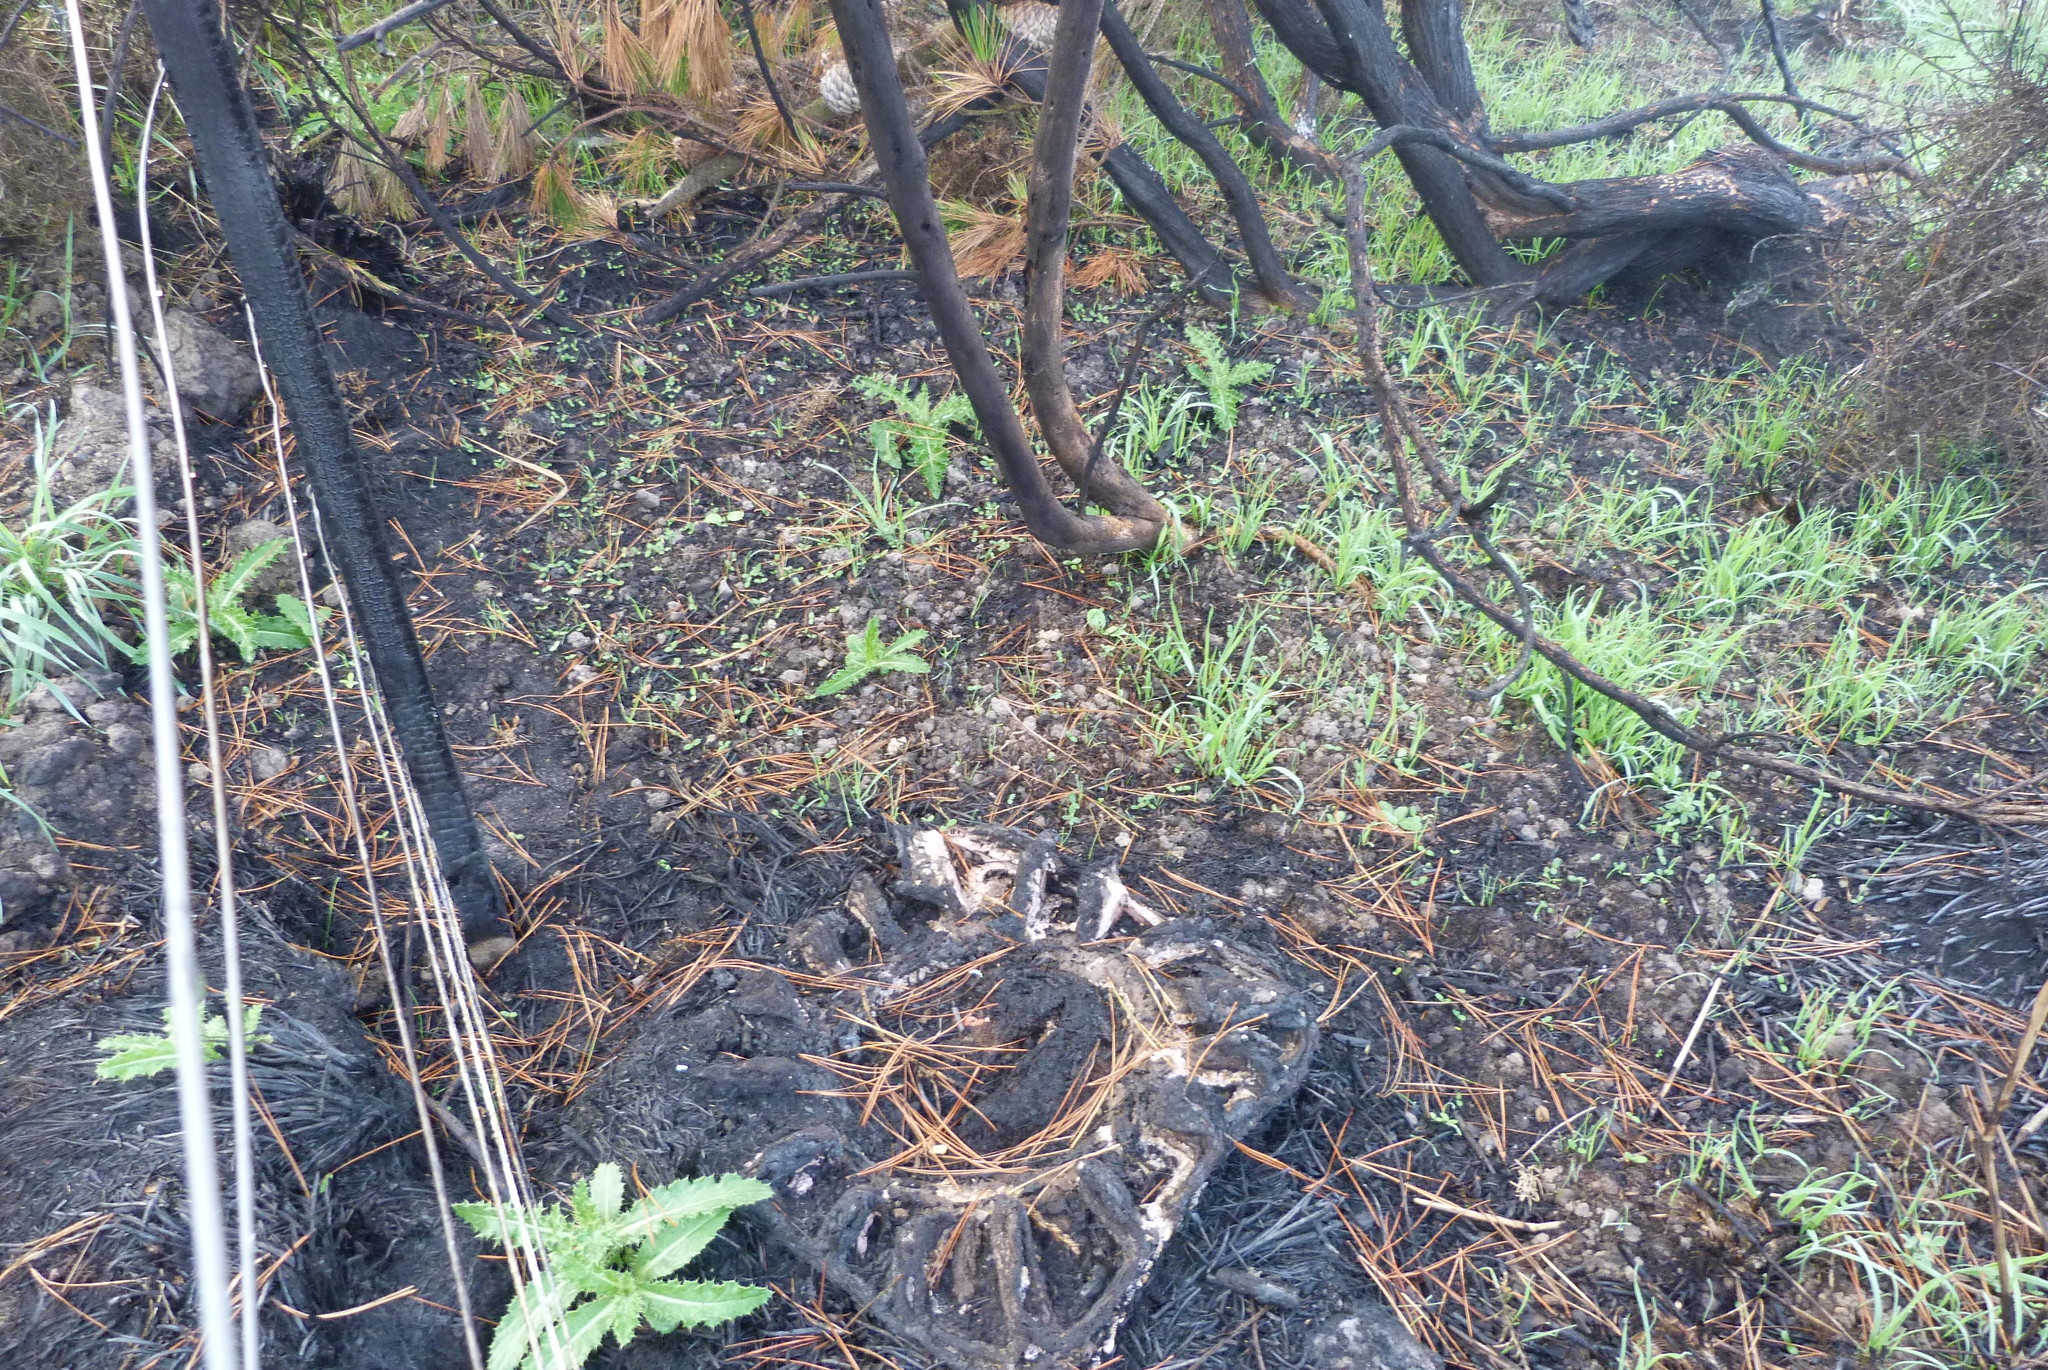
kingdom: Plantae
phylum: Tracheophyta
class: Magnoliopsida
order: Fabales
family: Fabaceae
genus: Ulex
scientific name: Ulex europaeus
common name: Common gorse
